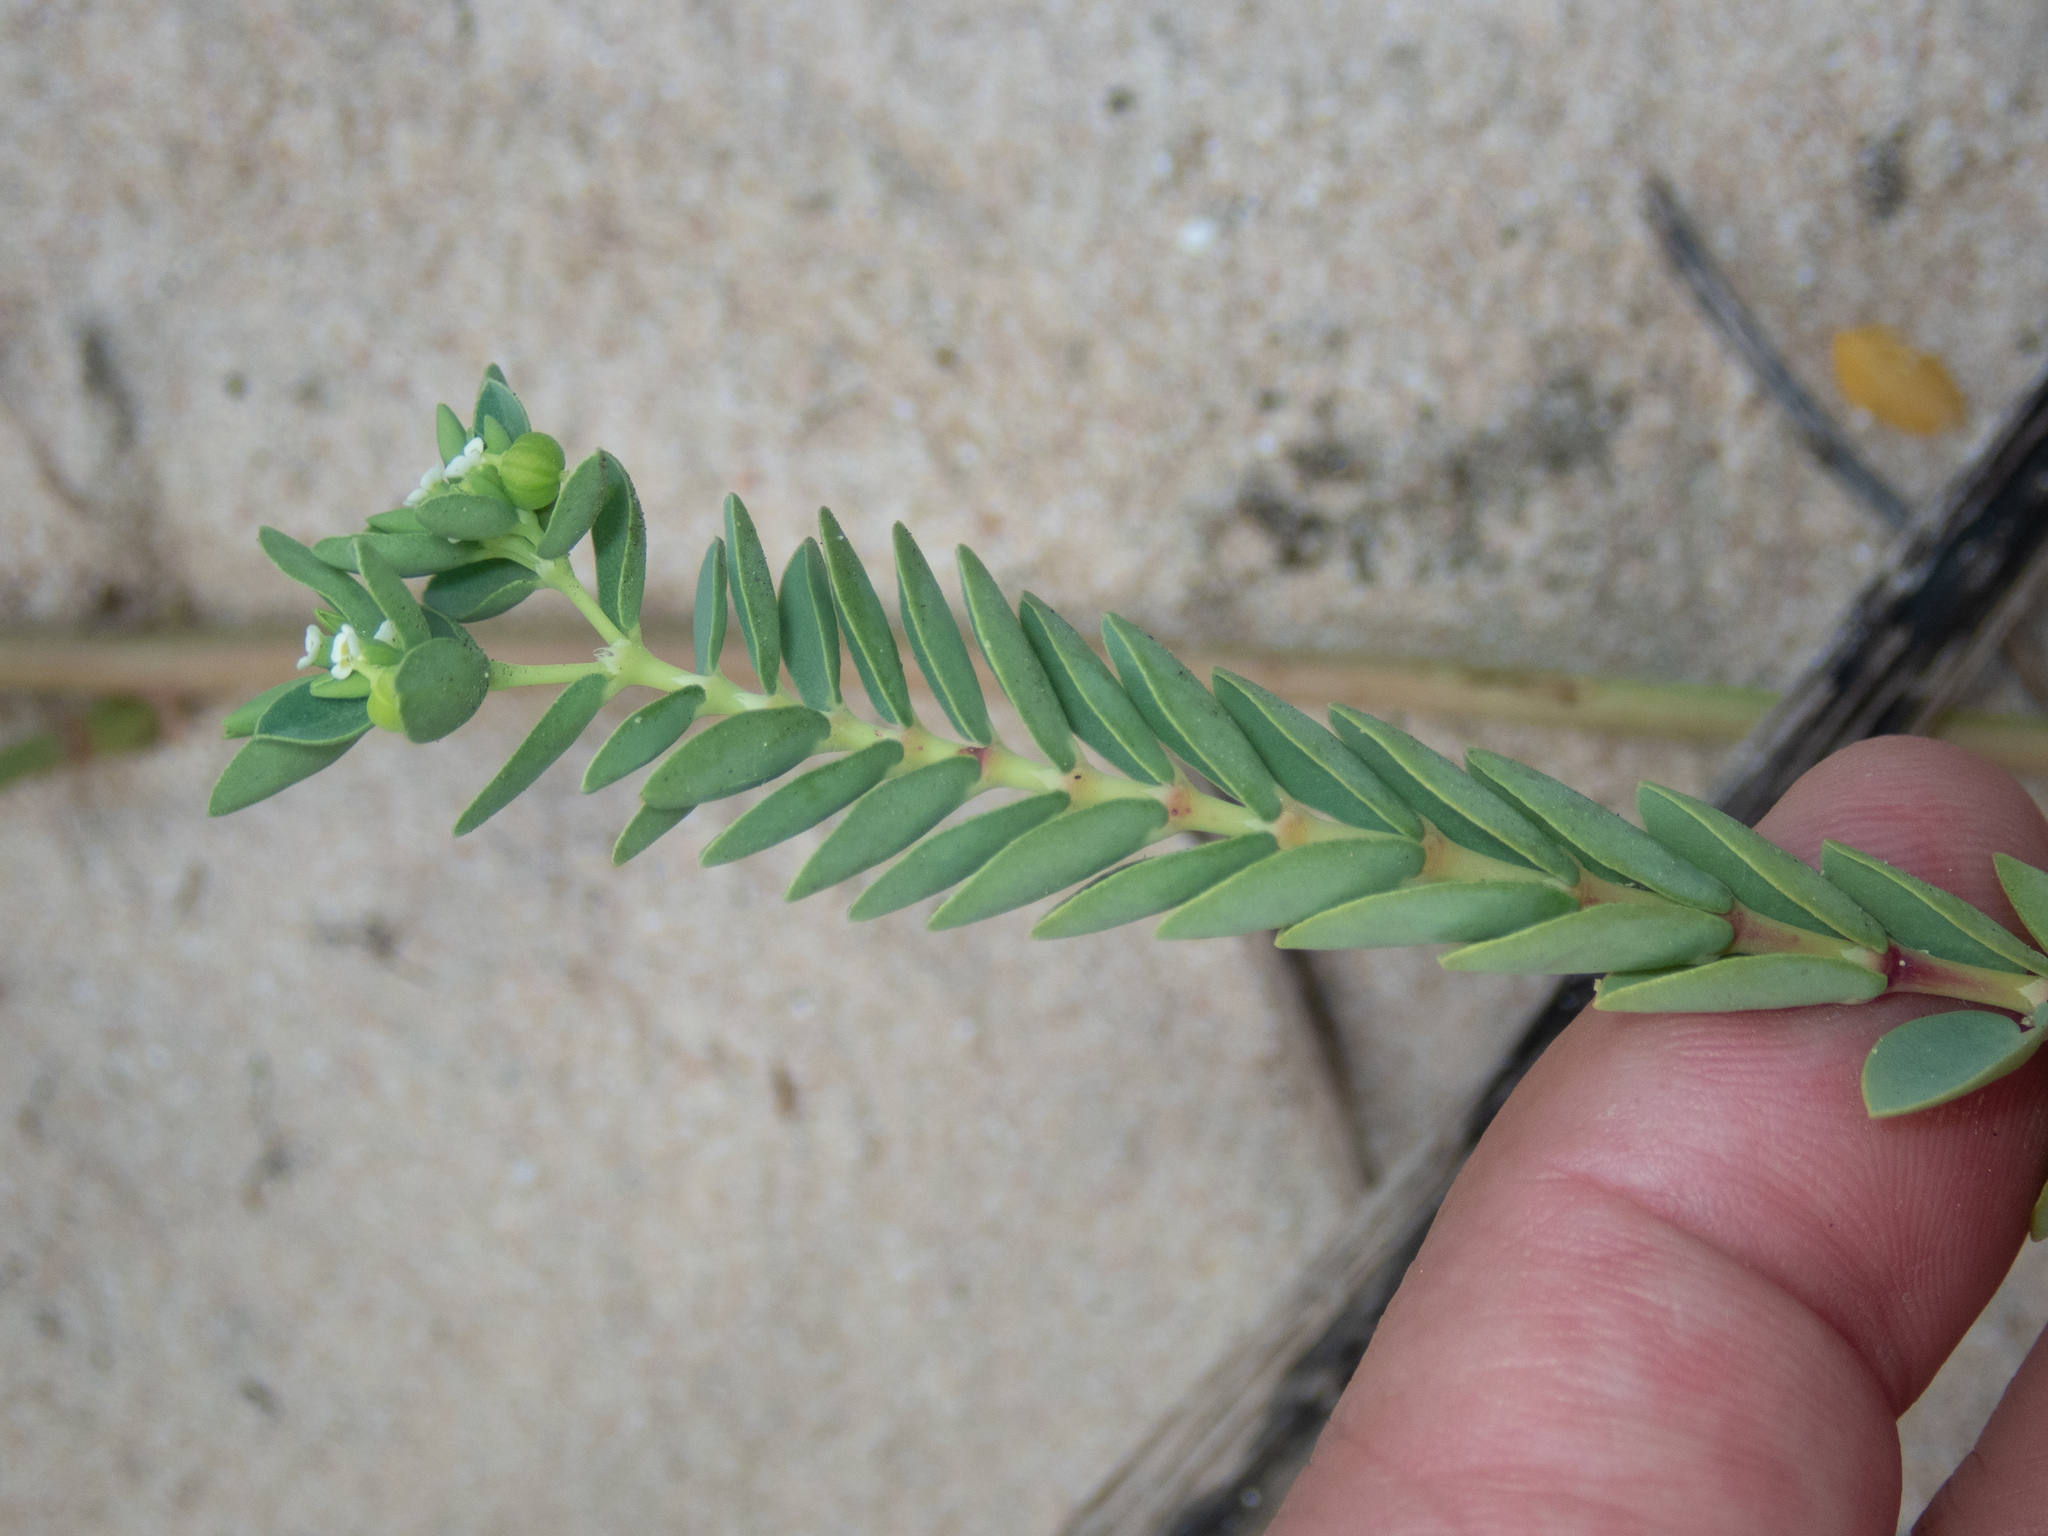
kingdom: Plantae
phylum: Tracheophyta
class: Magnoliopsida
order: Malpighiales
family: Euphorbiaceae
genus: Euphorbia
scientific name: Euphorbia mesembryanthemifolia
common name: Coastal beach sandmat
